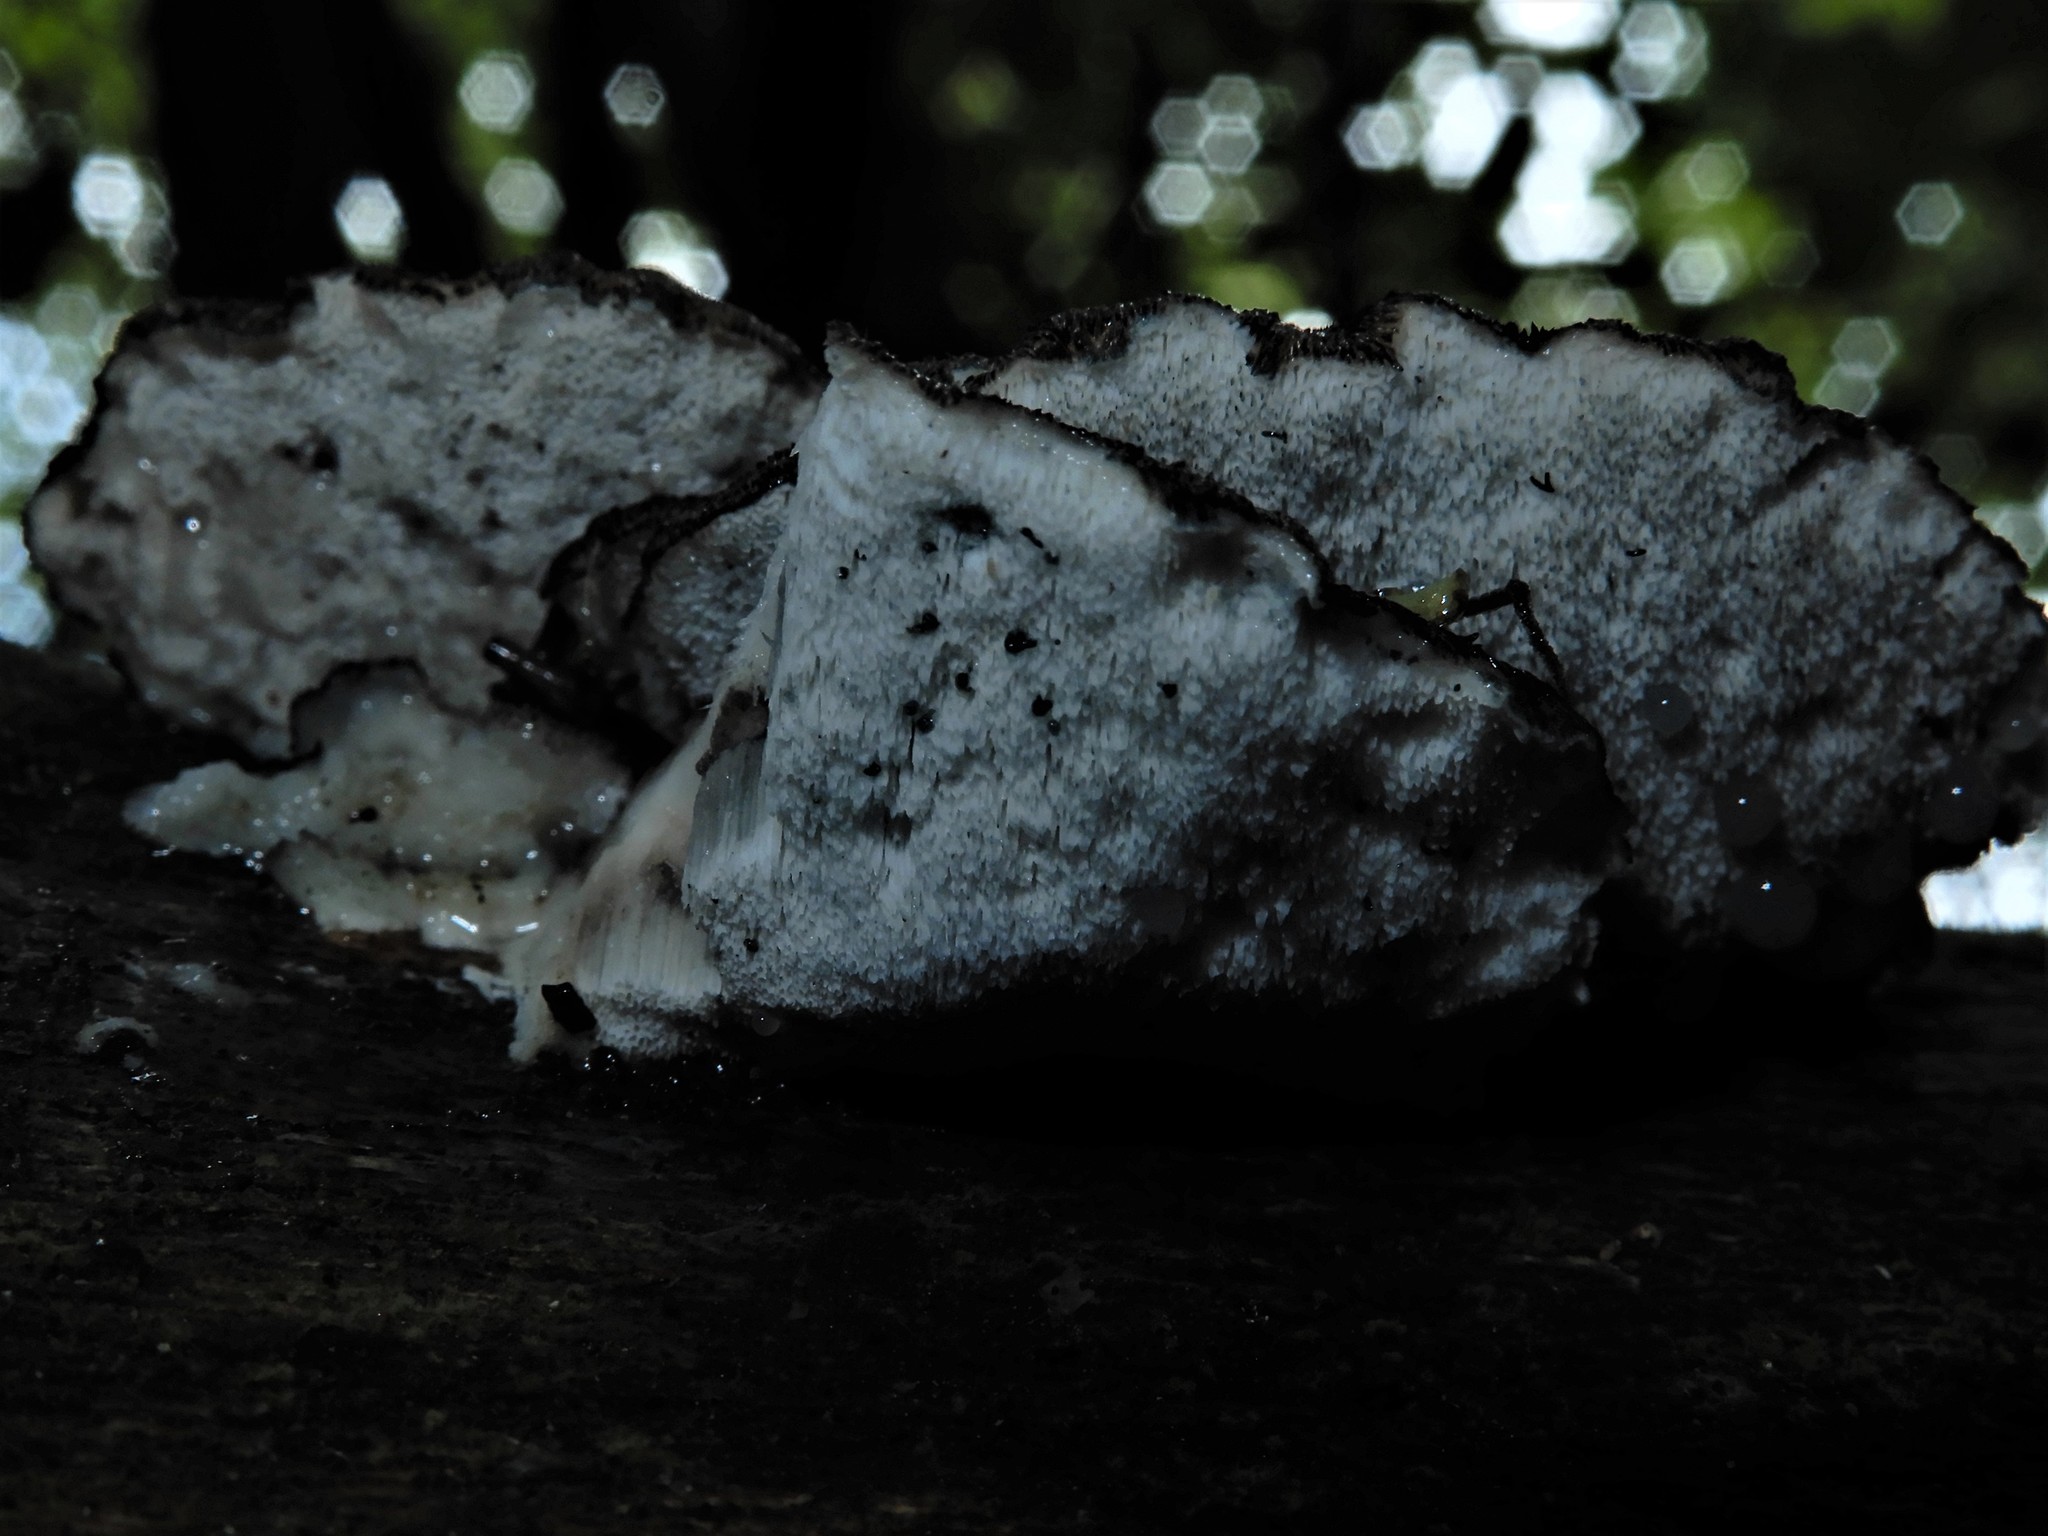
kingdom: Fungi
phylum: Basidiomycota
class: Agaricomycetes
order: Polyporales
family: Incrustoporiaceae
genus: Tyromyces
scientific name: Tyromyces atrostrigosus
